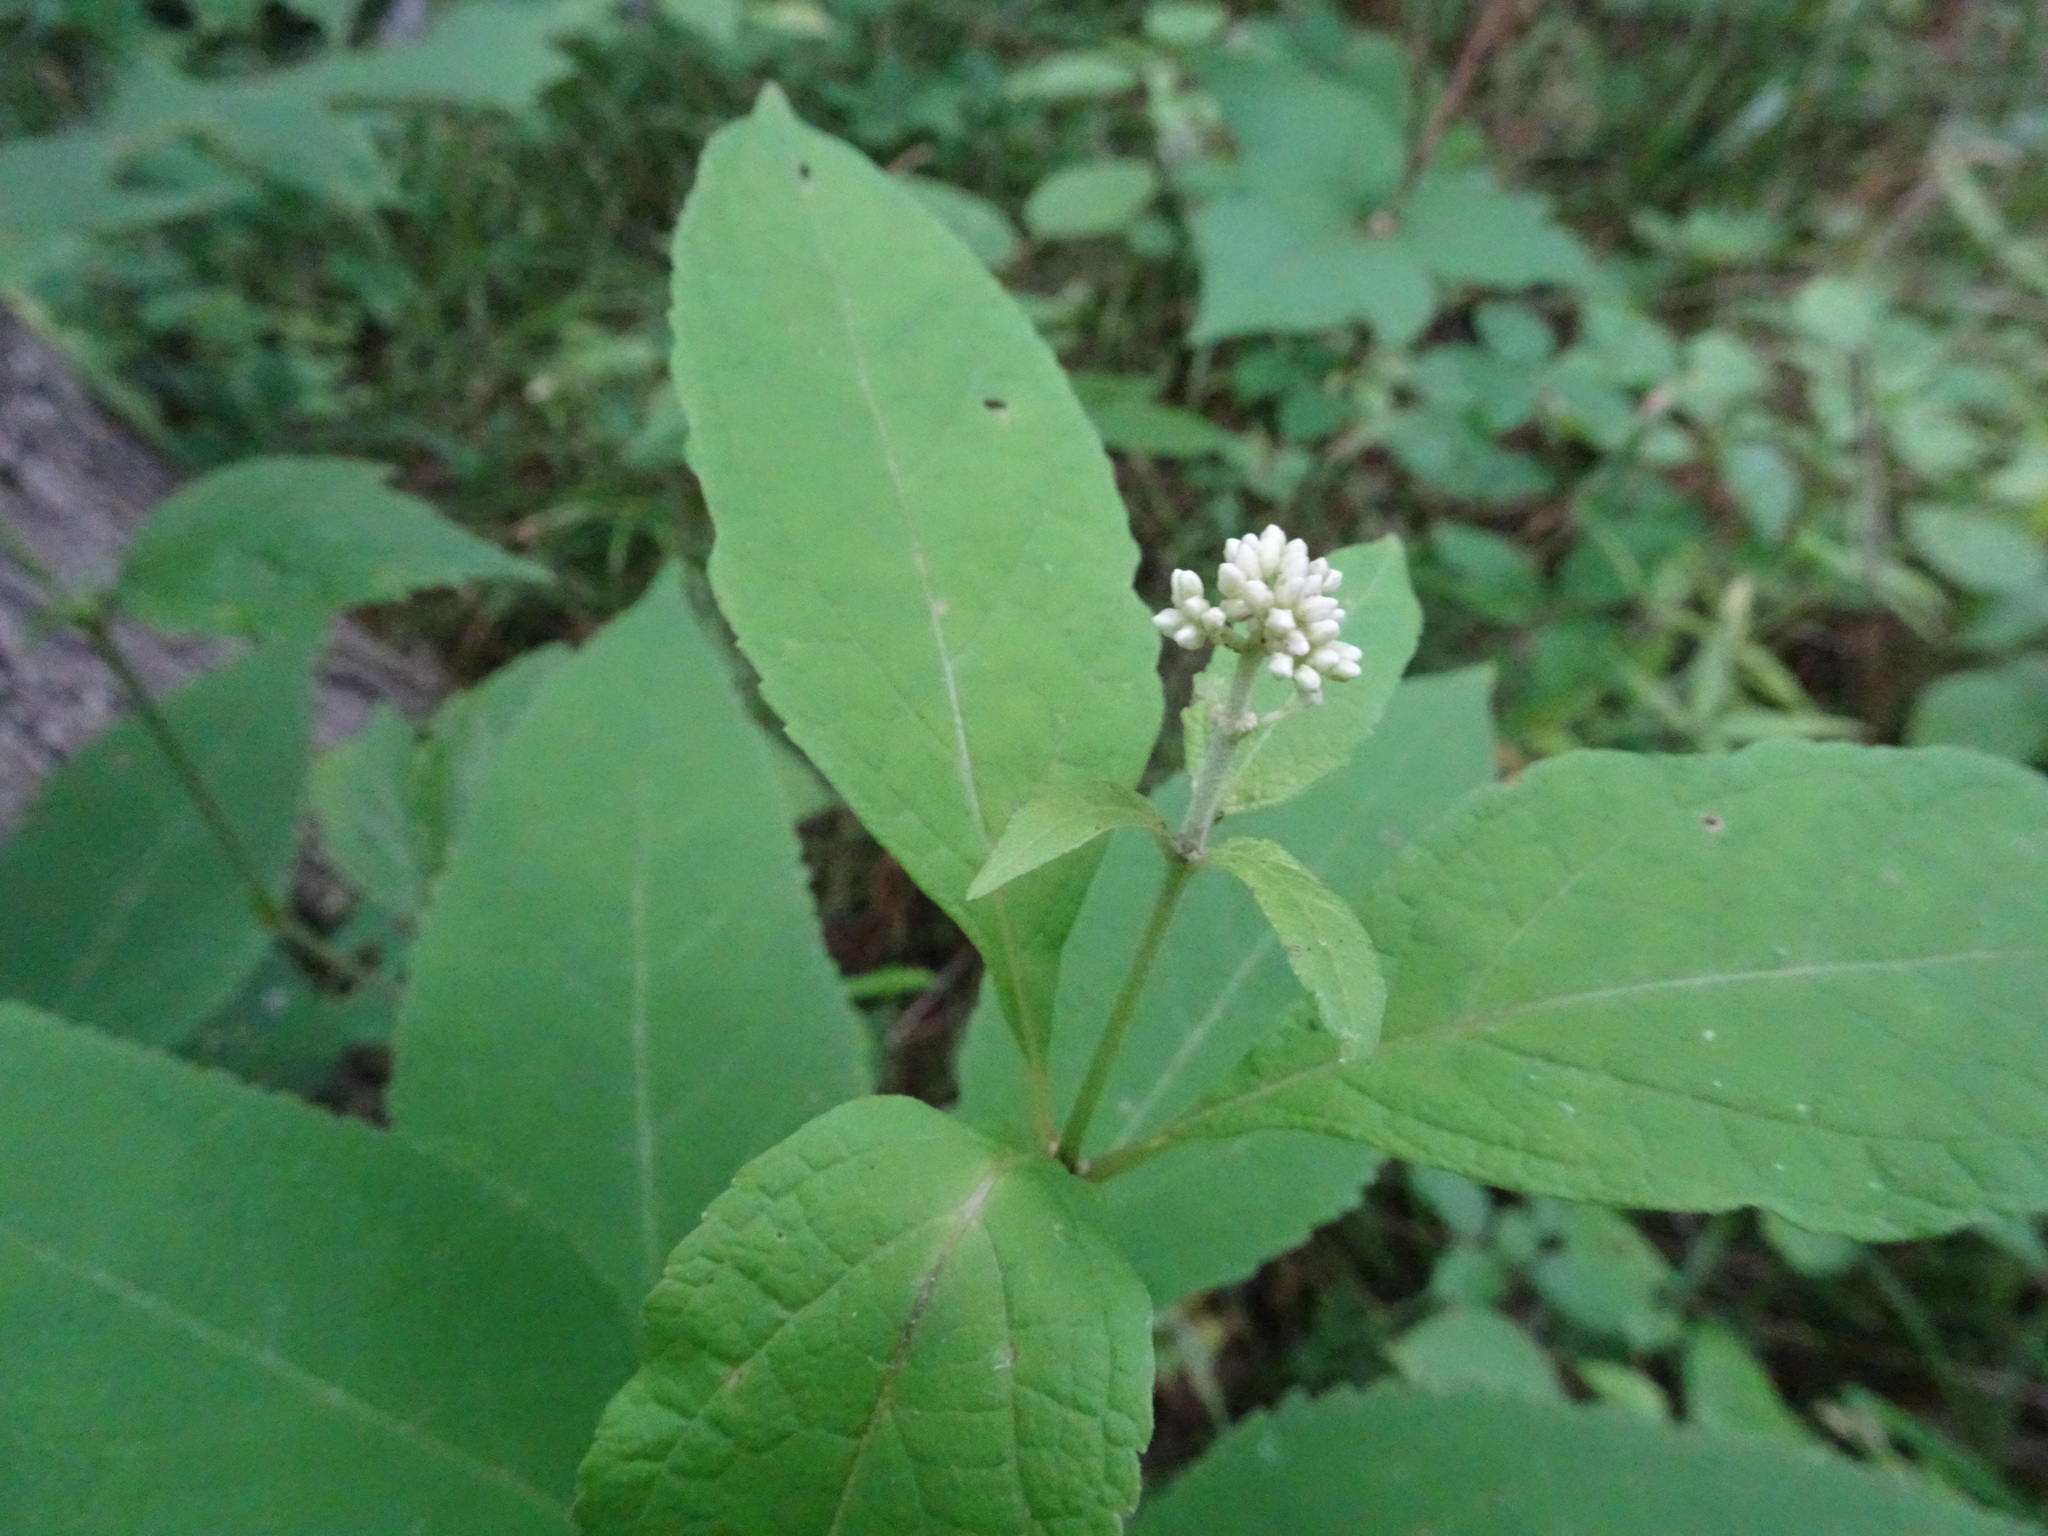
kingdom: Plantae
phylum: Tracheophyta
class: Magnoliopsida
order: Asterales
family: Asteraceae
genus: Eutrochium
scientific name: Eutrochium purpureum
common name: Gravelroot
